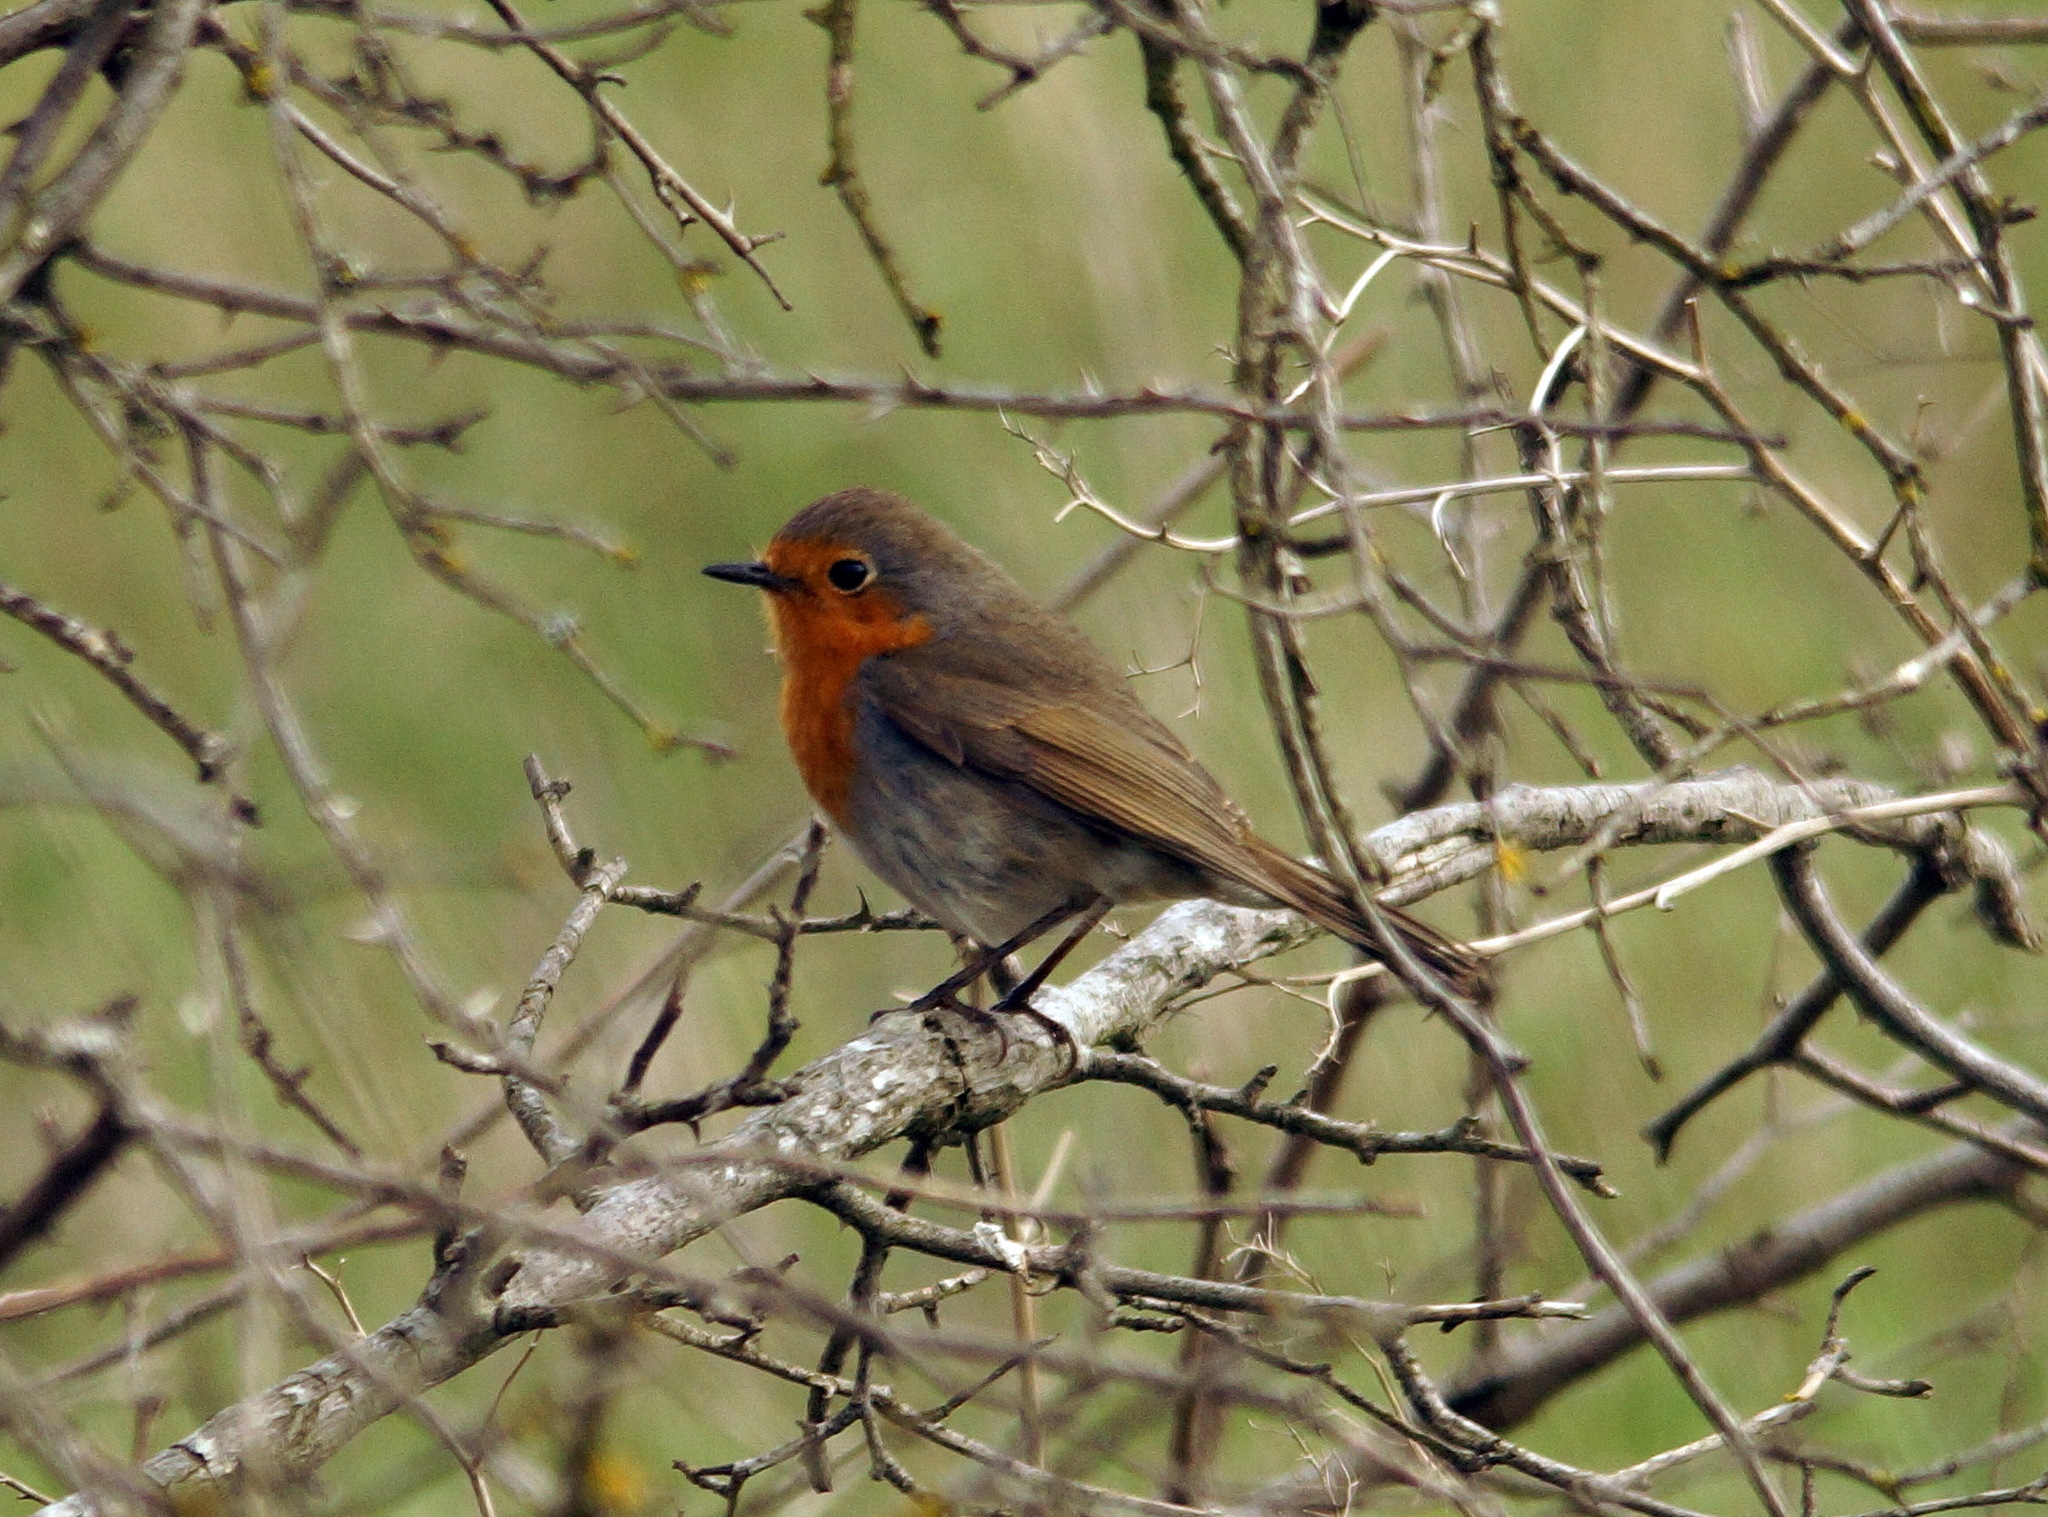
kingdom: Animalia
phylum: Chordata
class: Aves
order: Passeriformes
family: Muscicapidae
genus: Erithacus
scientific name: Erithacus rubecula
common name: European robin
